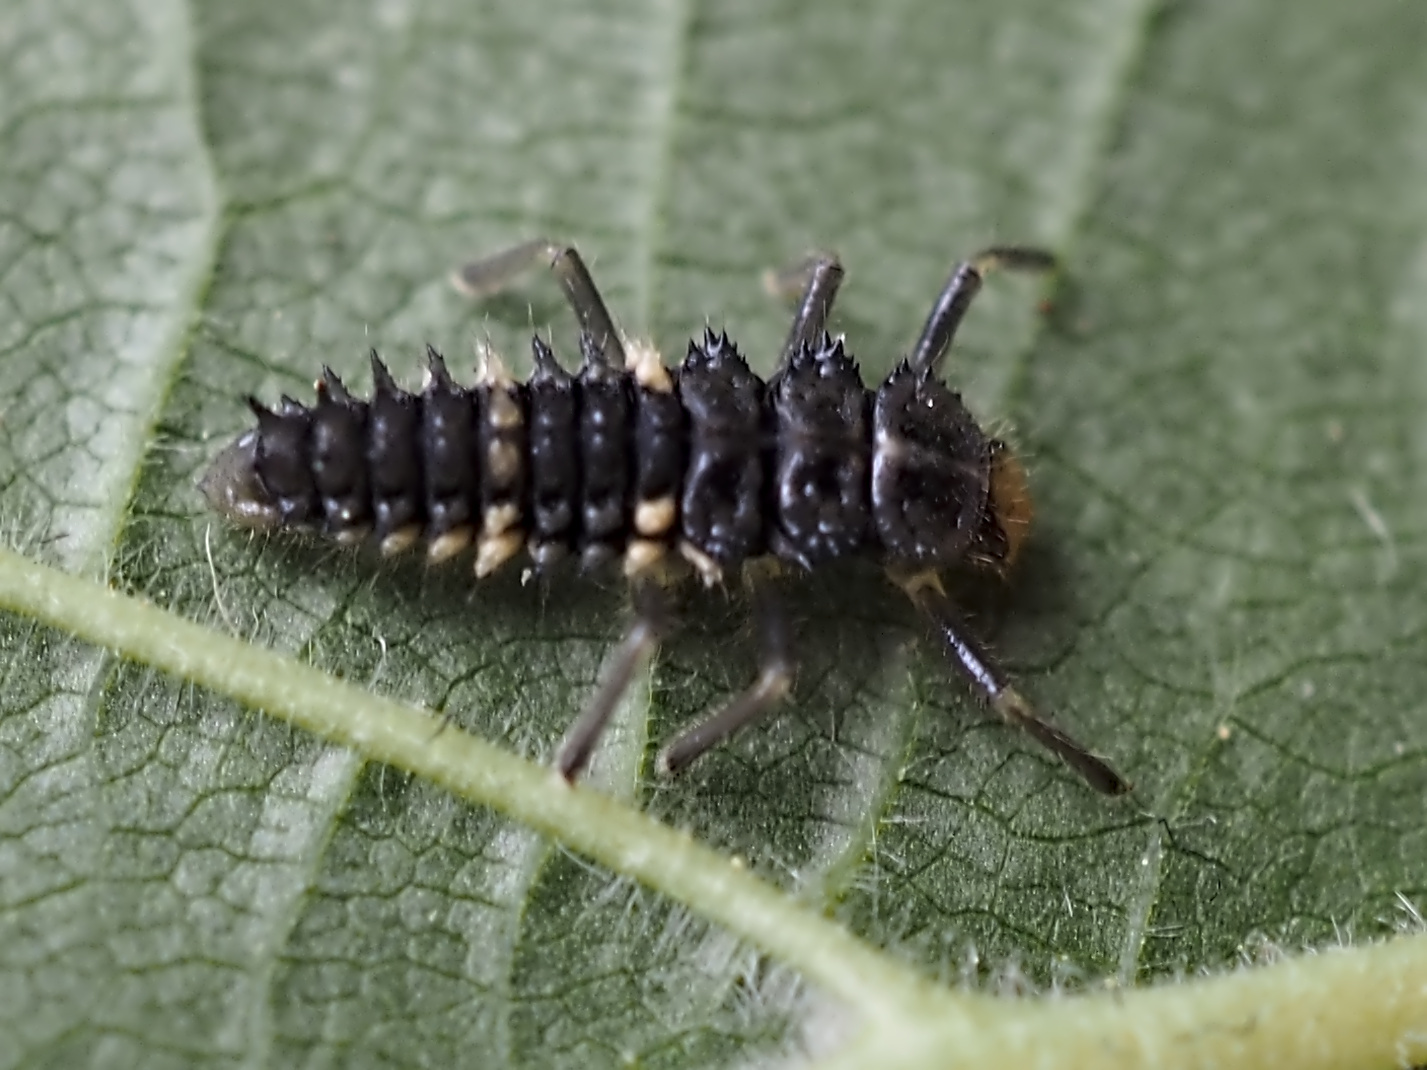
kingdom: Animalia
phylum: Arthropoda
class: Insecta
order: Coleoptera
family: Coccinellidae
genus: Calvia
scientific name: Calvia quatuordecimguttata
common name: Cream-spot ladybird
